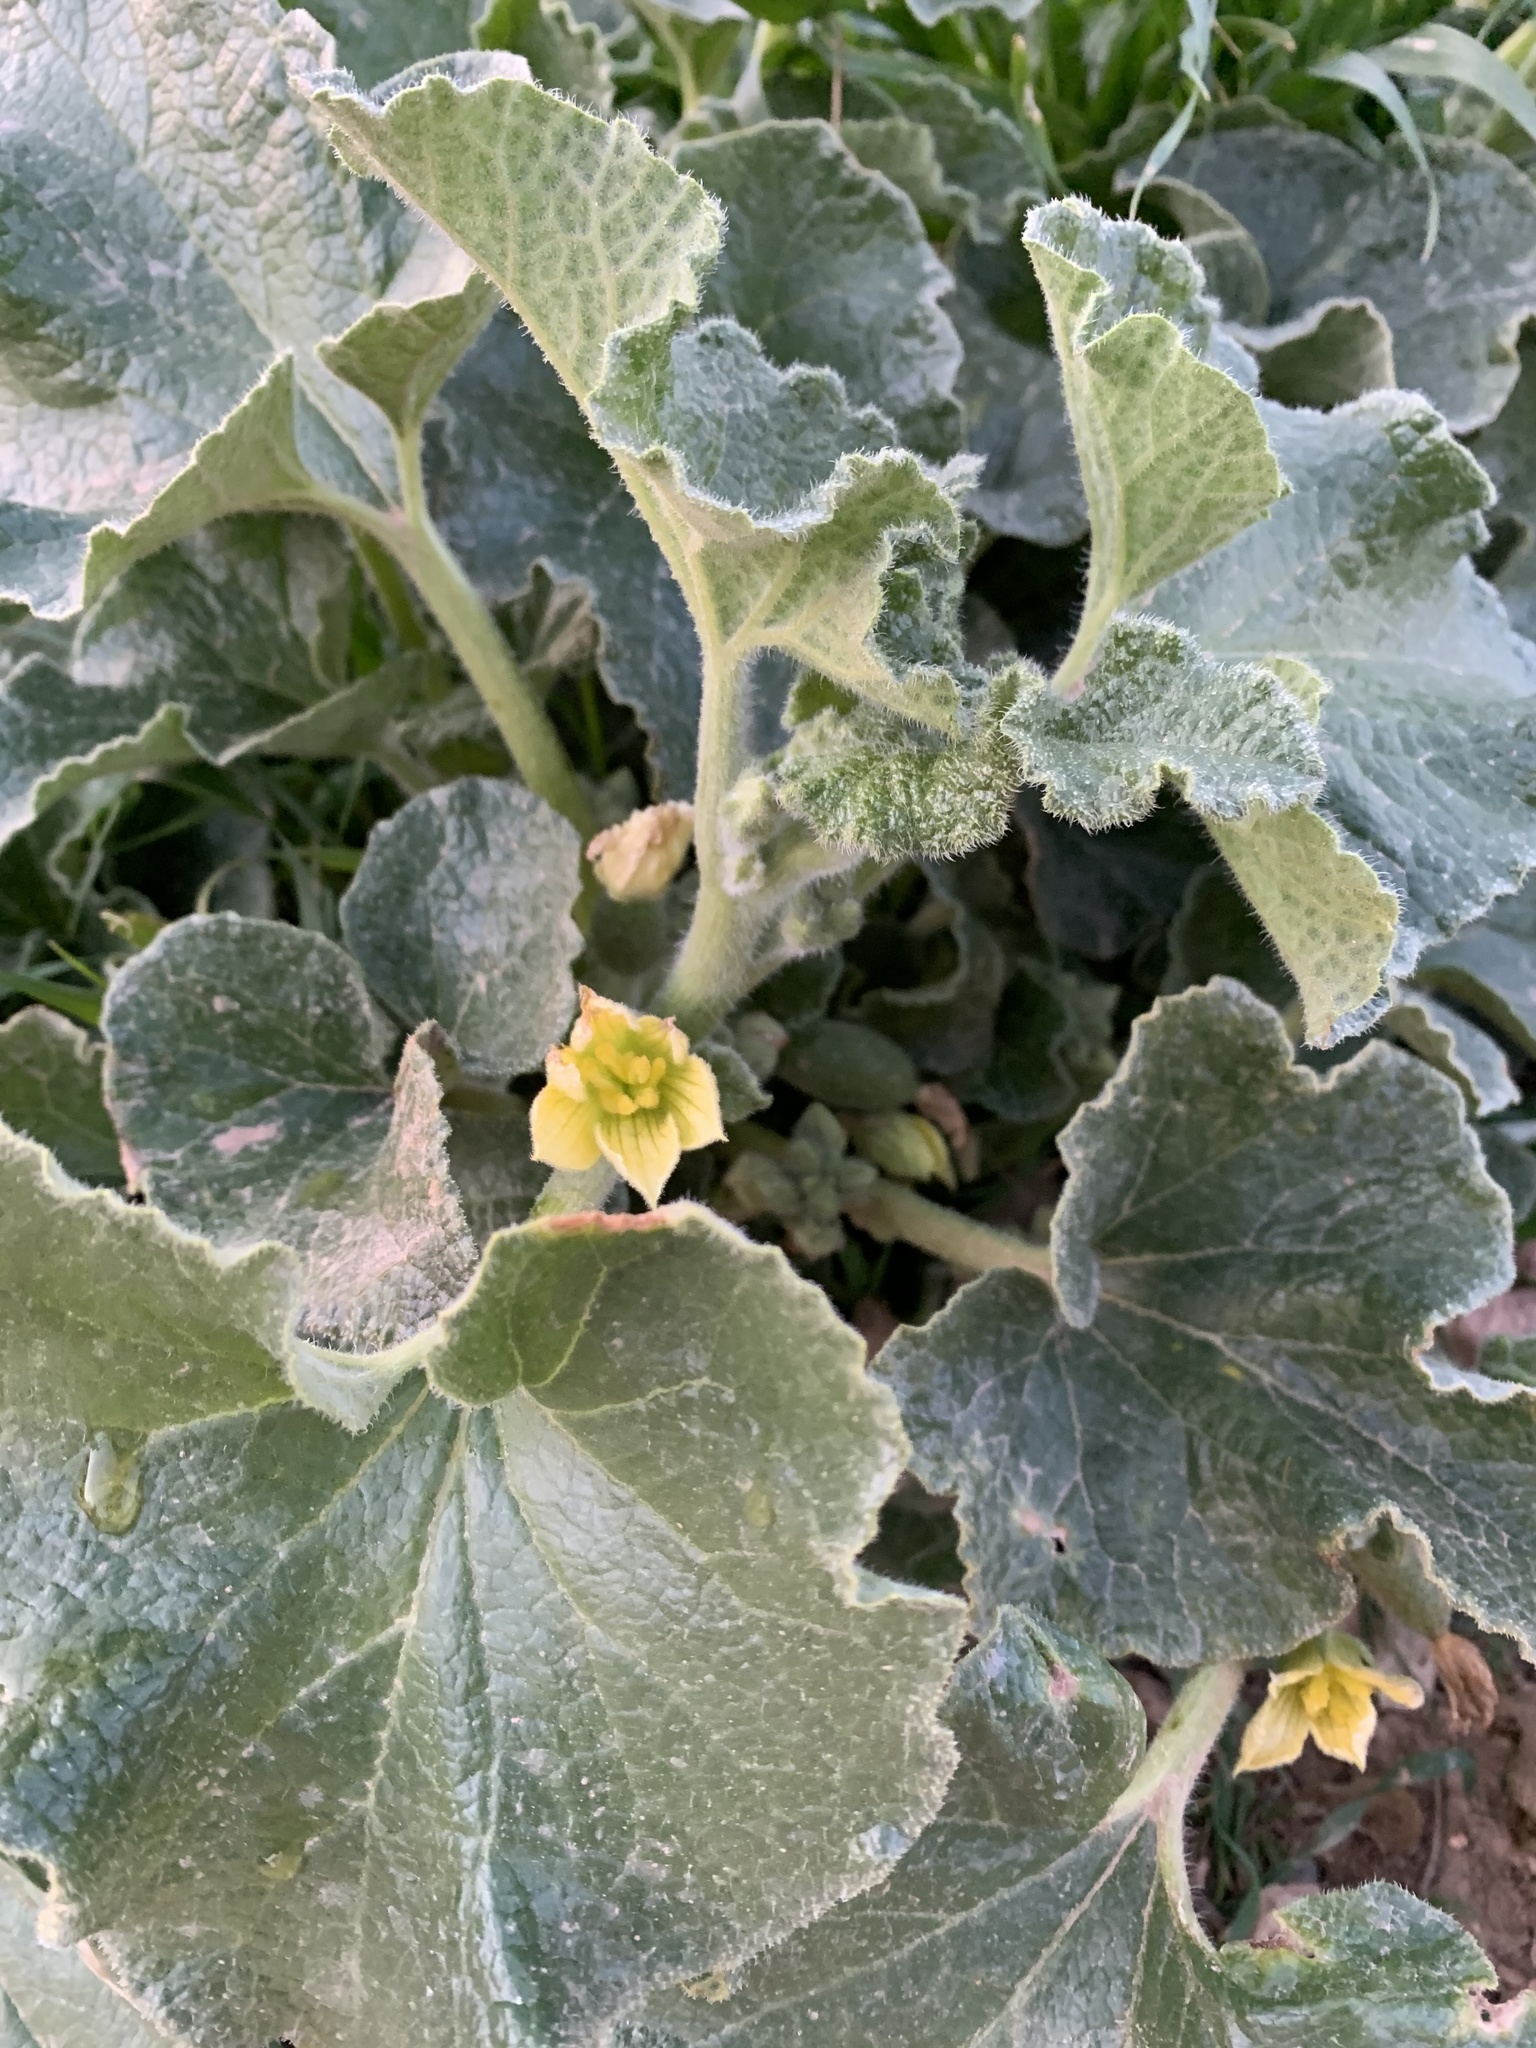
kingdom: Plantae
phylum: Tracheophyta
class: Magnoliopsida
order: Cucurbitales
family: Cucurbitaceae
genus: Ecballium
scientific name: Ecballium elaterium
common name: Squirting cucumber
